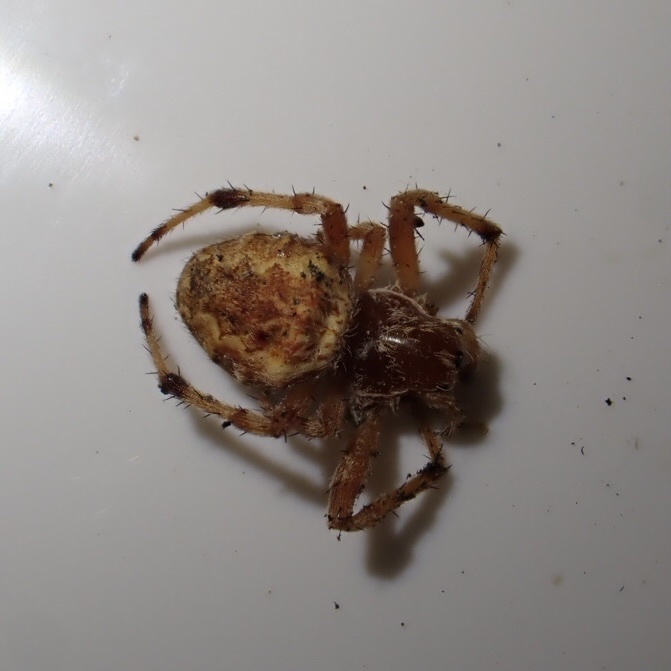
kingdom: Animalia
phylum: Arthropoda
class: Arachnida
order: Araneae
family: Araneidae
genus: Salsa
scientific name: Salsa fuliginata
